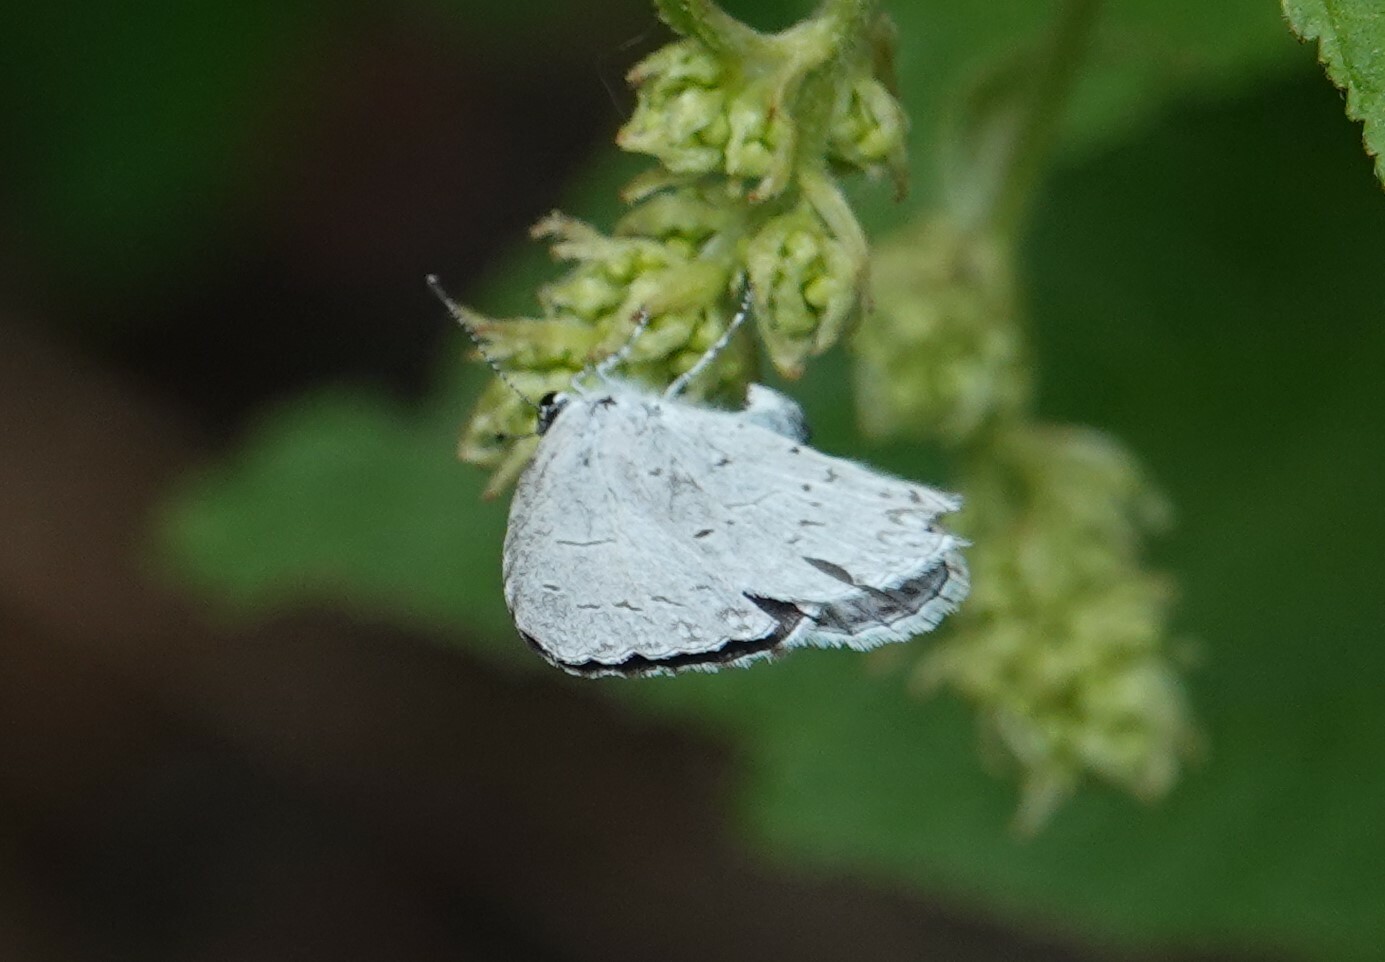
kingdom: Animalia
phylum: Arthropoda
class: Insecta
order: Lepidoptera
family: Lycaenidae
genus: Cyaniris
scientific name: Cyaniris neglecta
